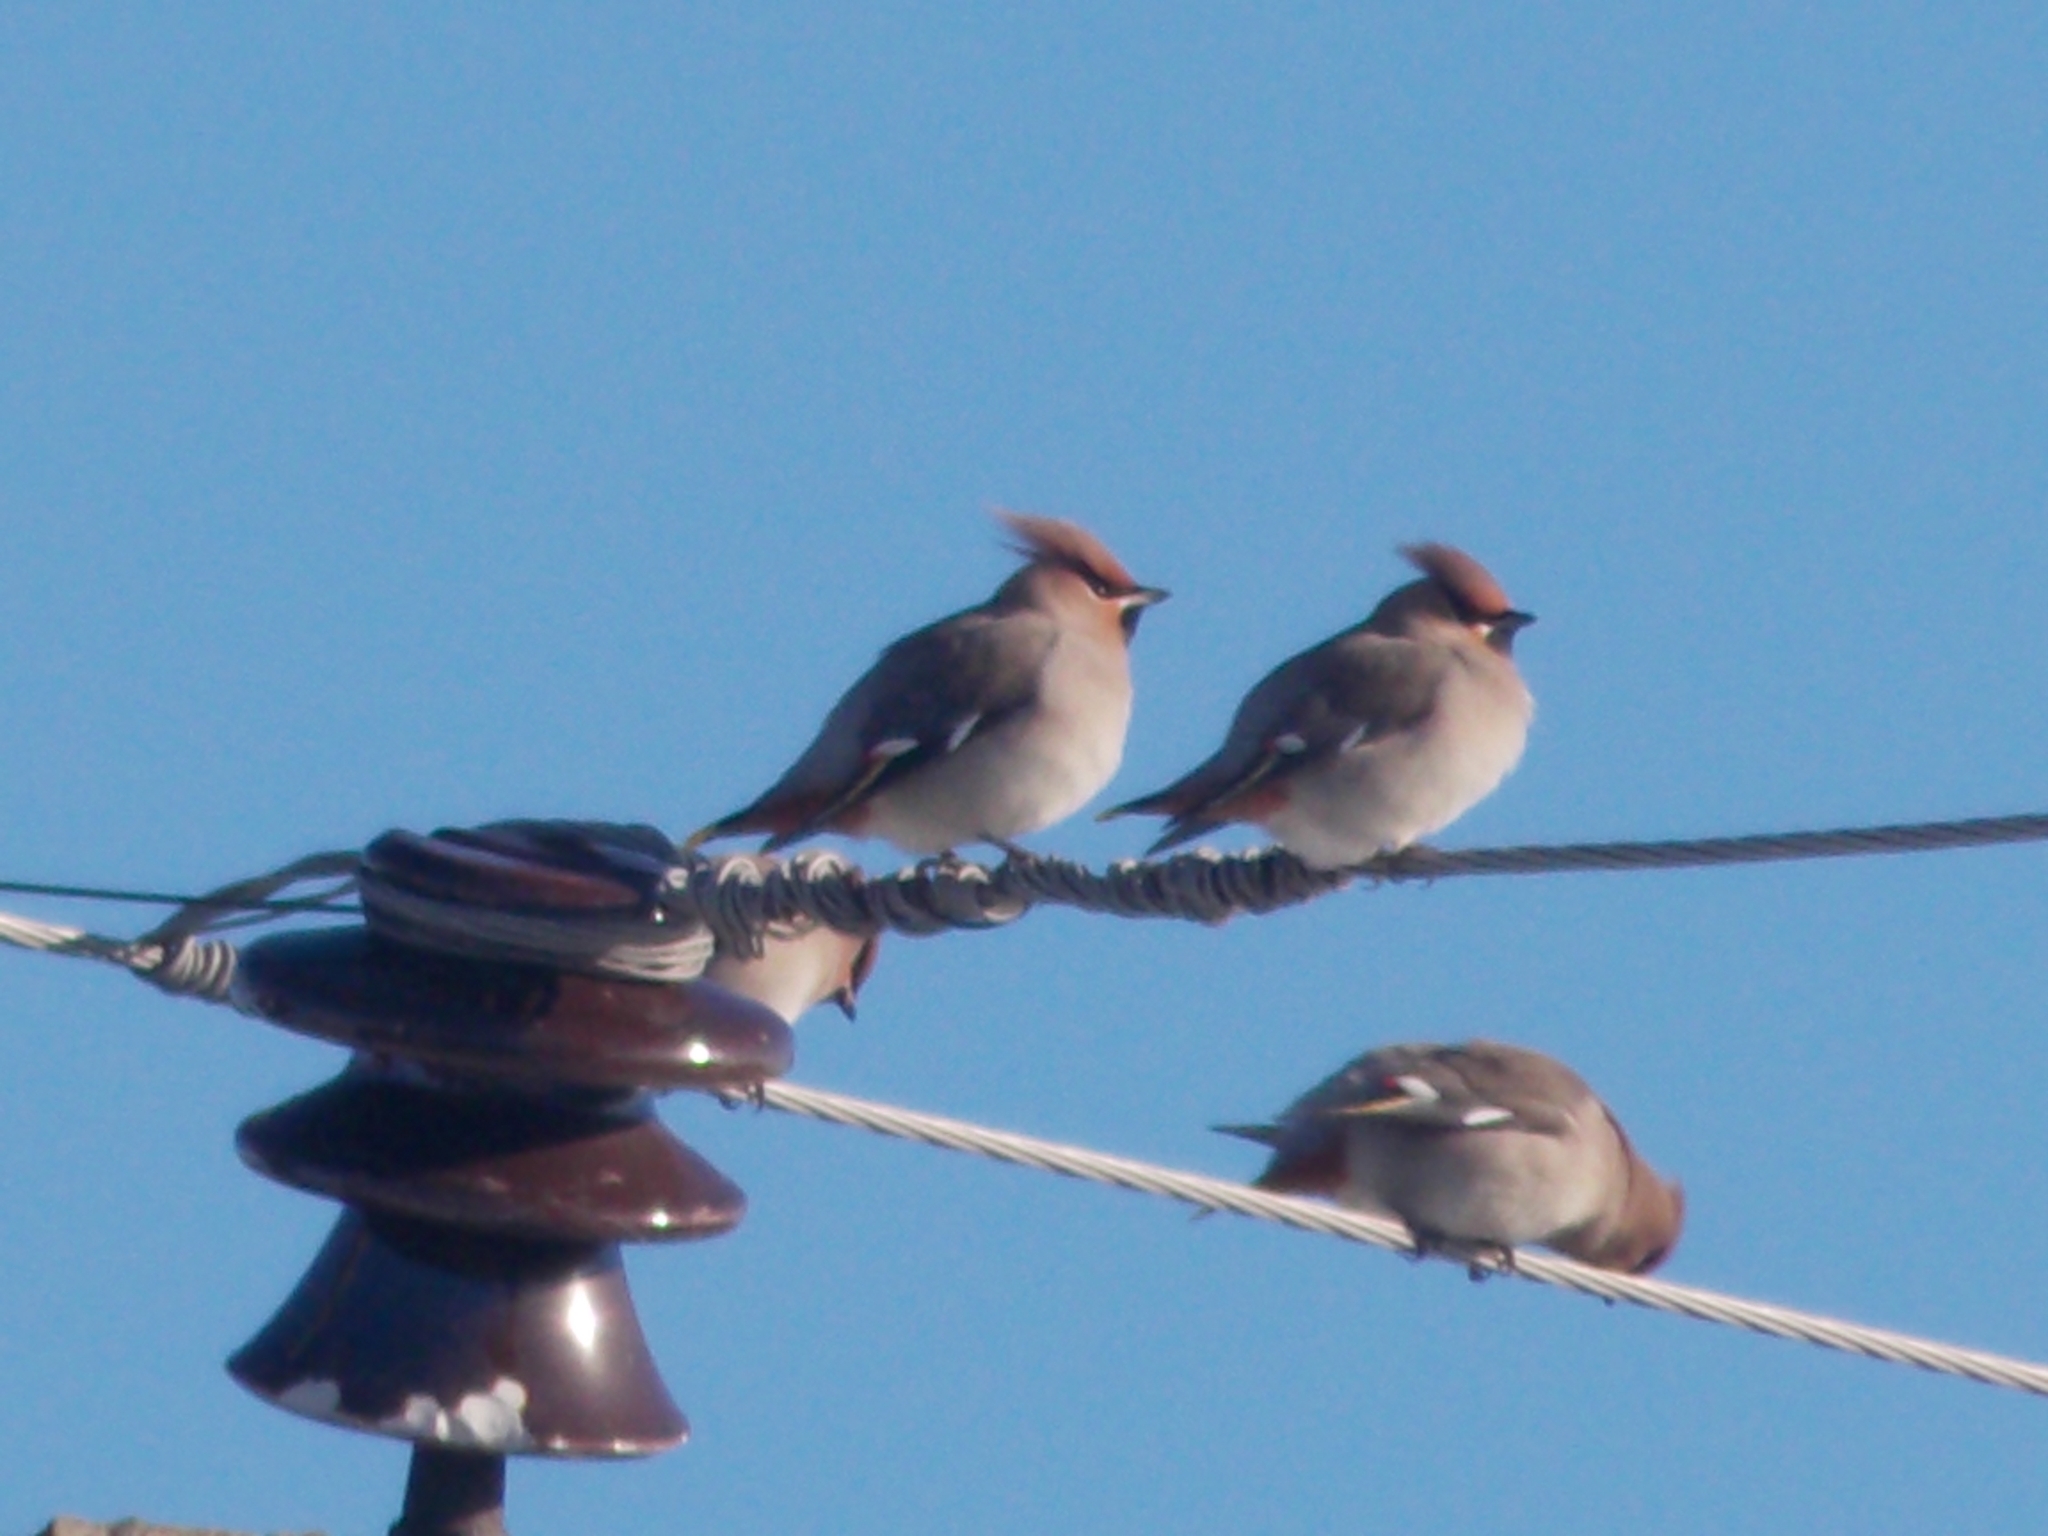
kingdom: Animalia
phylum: Chordata
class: Aves
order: Passeriformes
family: Bombycillidae
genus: Bombycilla
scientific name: Bombycilla garrulus
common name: Bohemian waxwing
